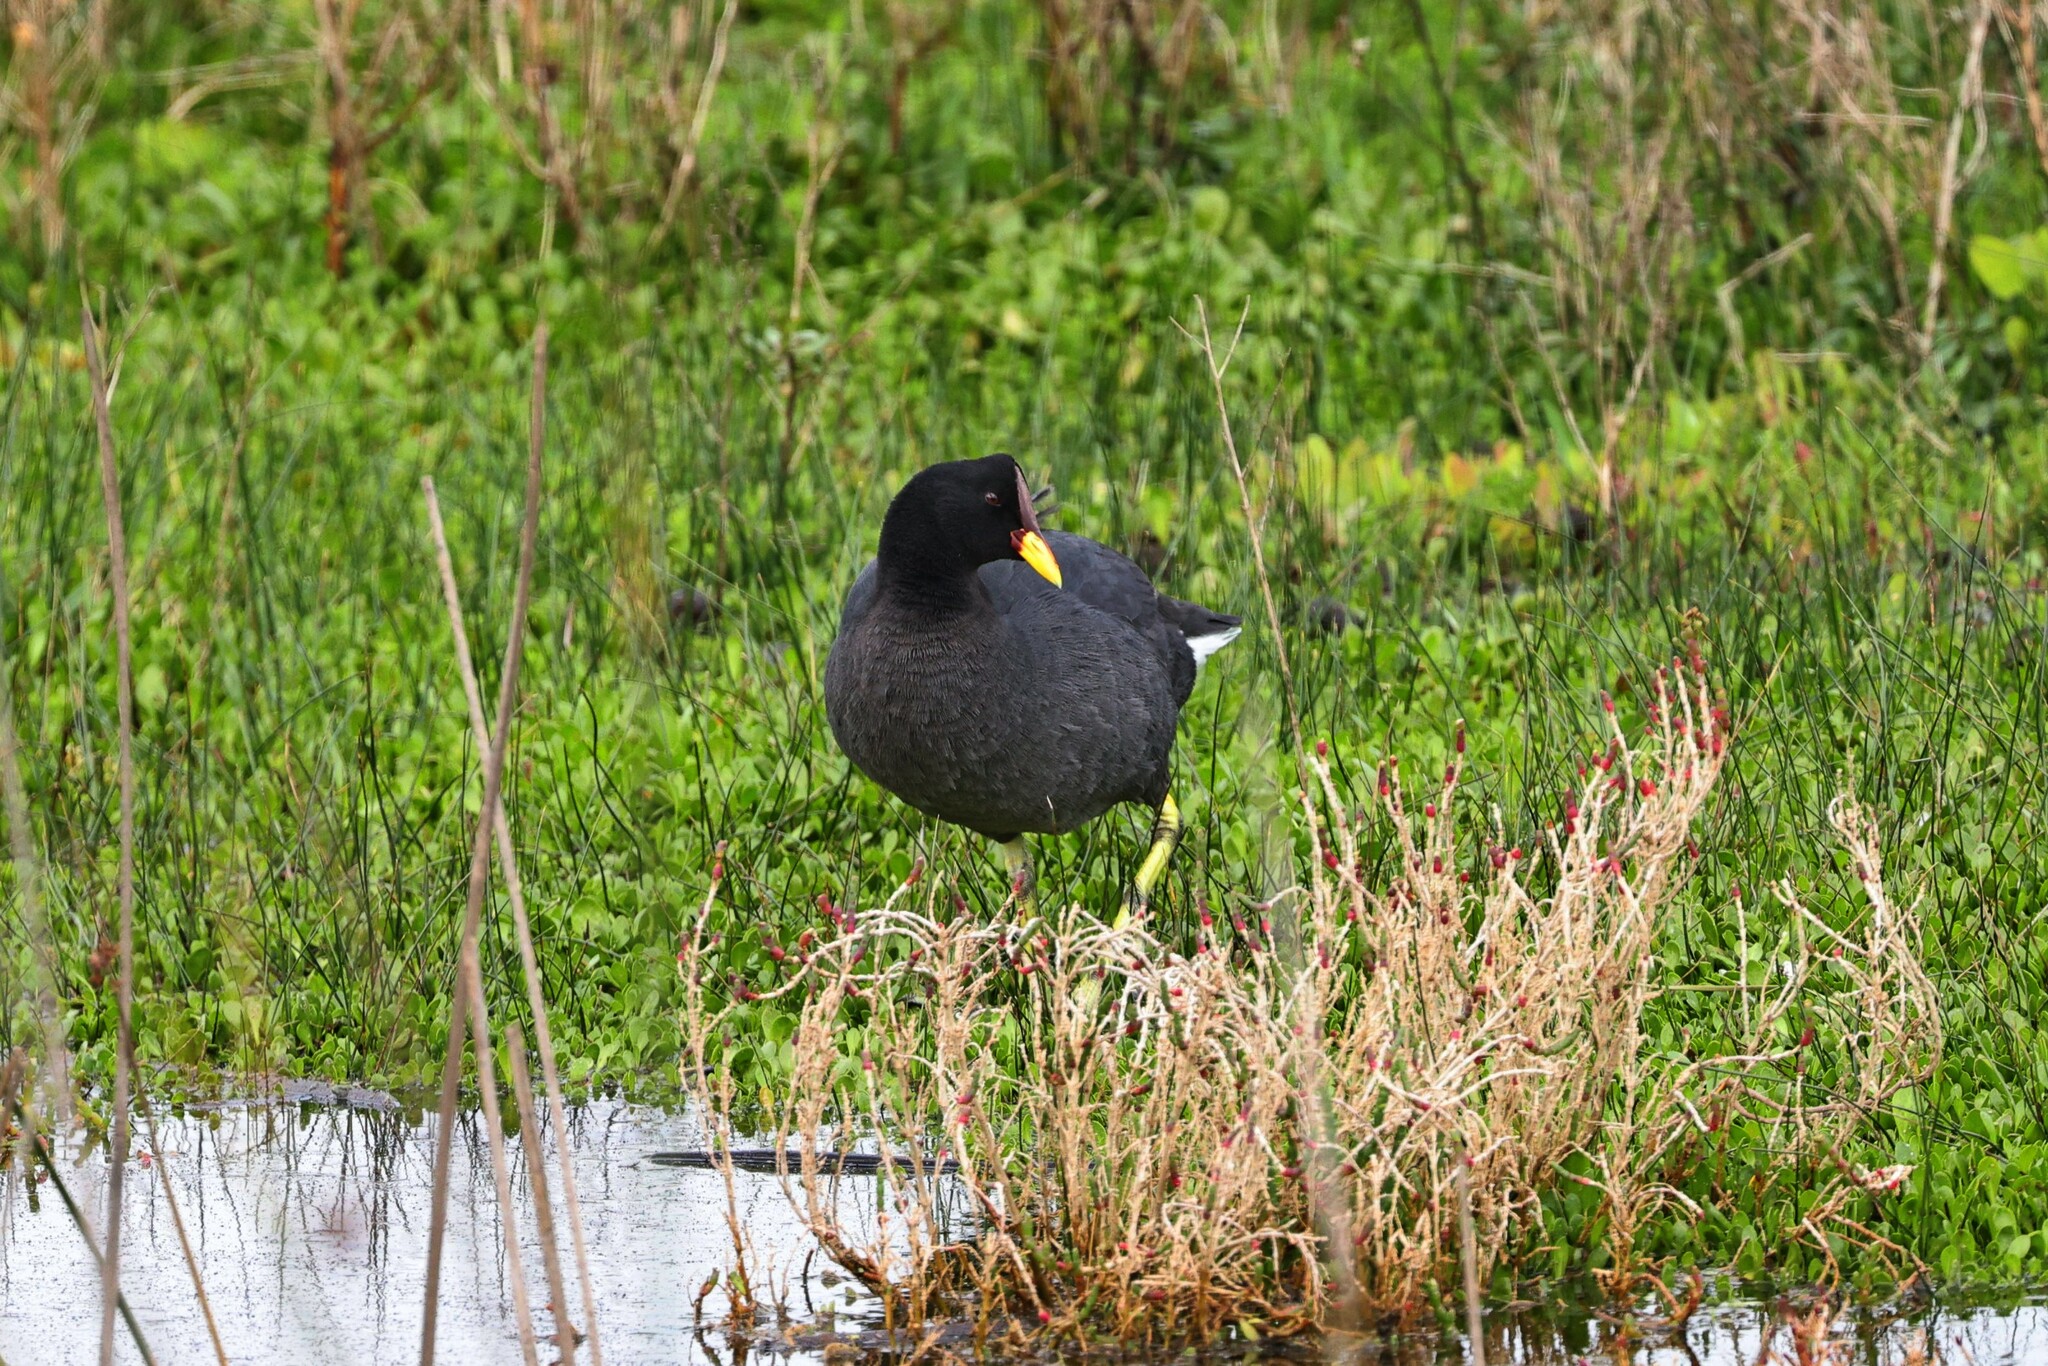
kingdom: Animalia
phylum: Chordata
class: Aves
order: Gruiformes
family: Rallidae
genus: Fulica
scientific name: Fulica rufifrons
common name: Red-fronted coot
